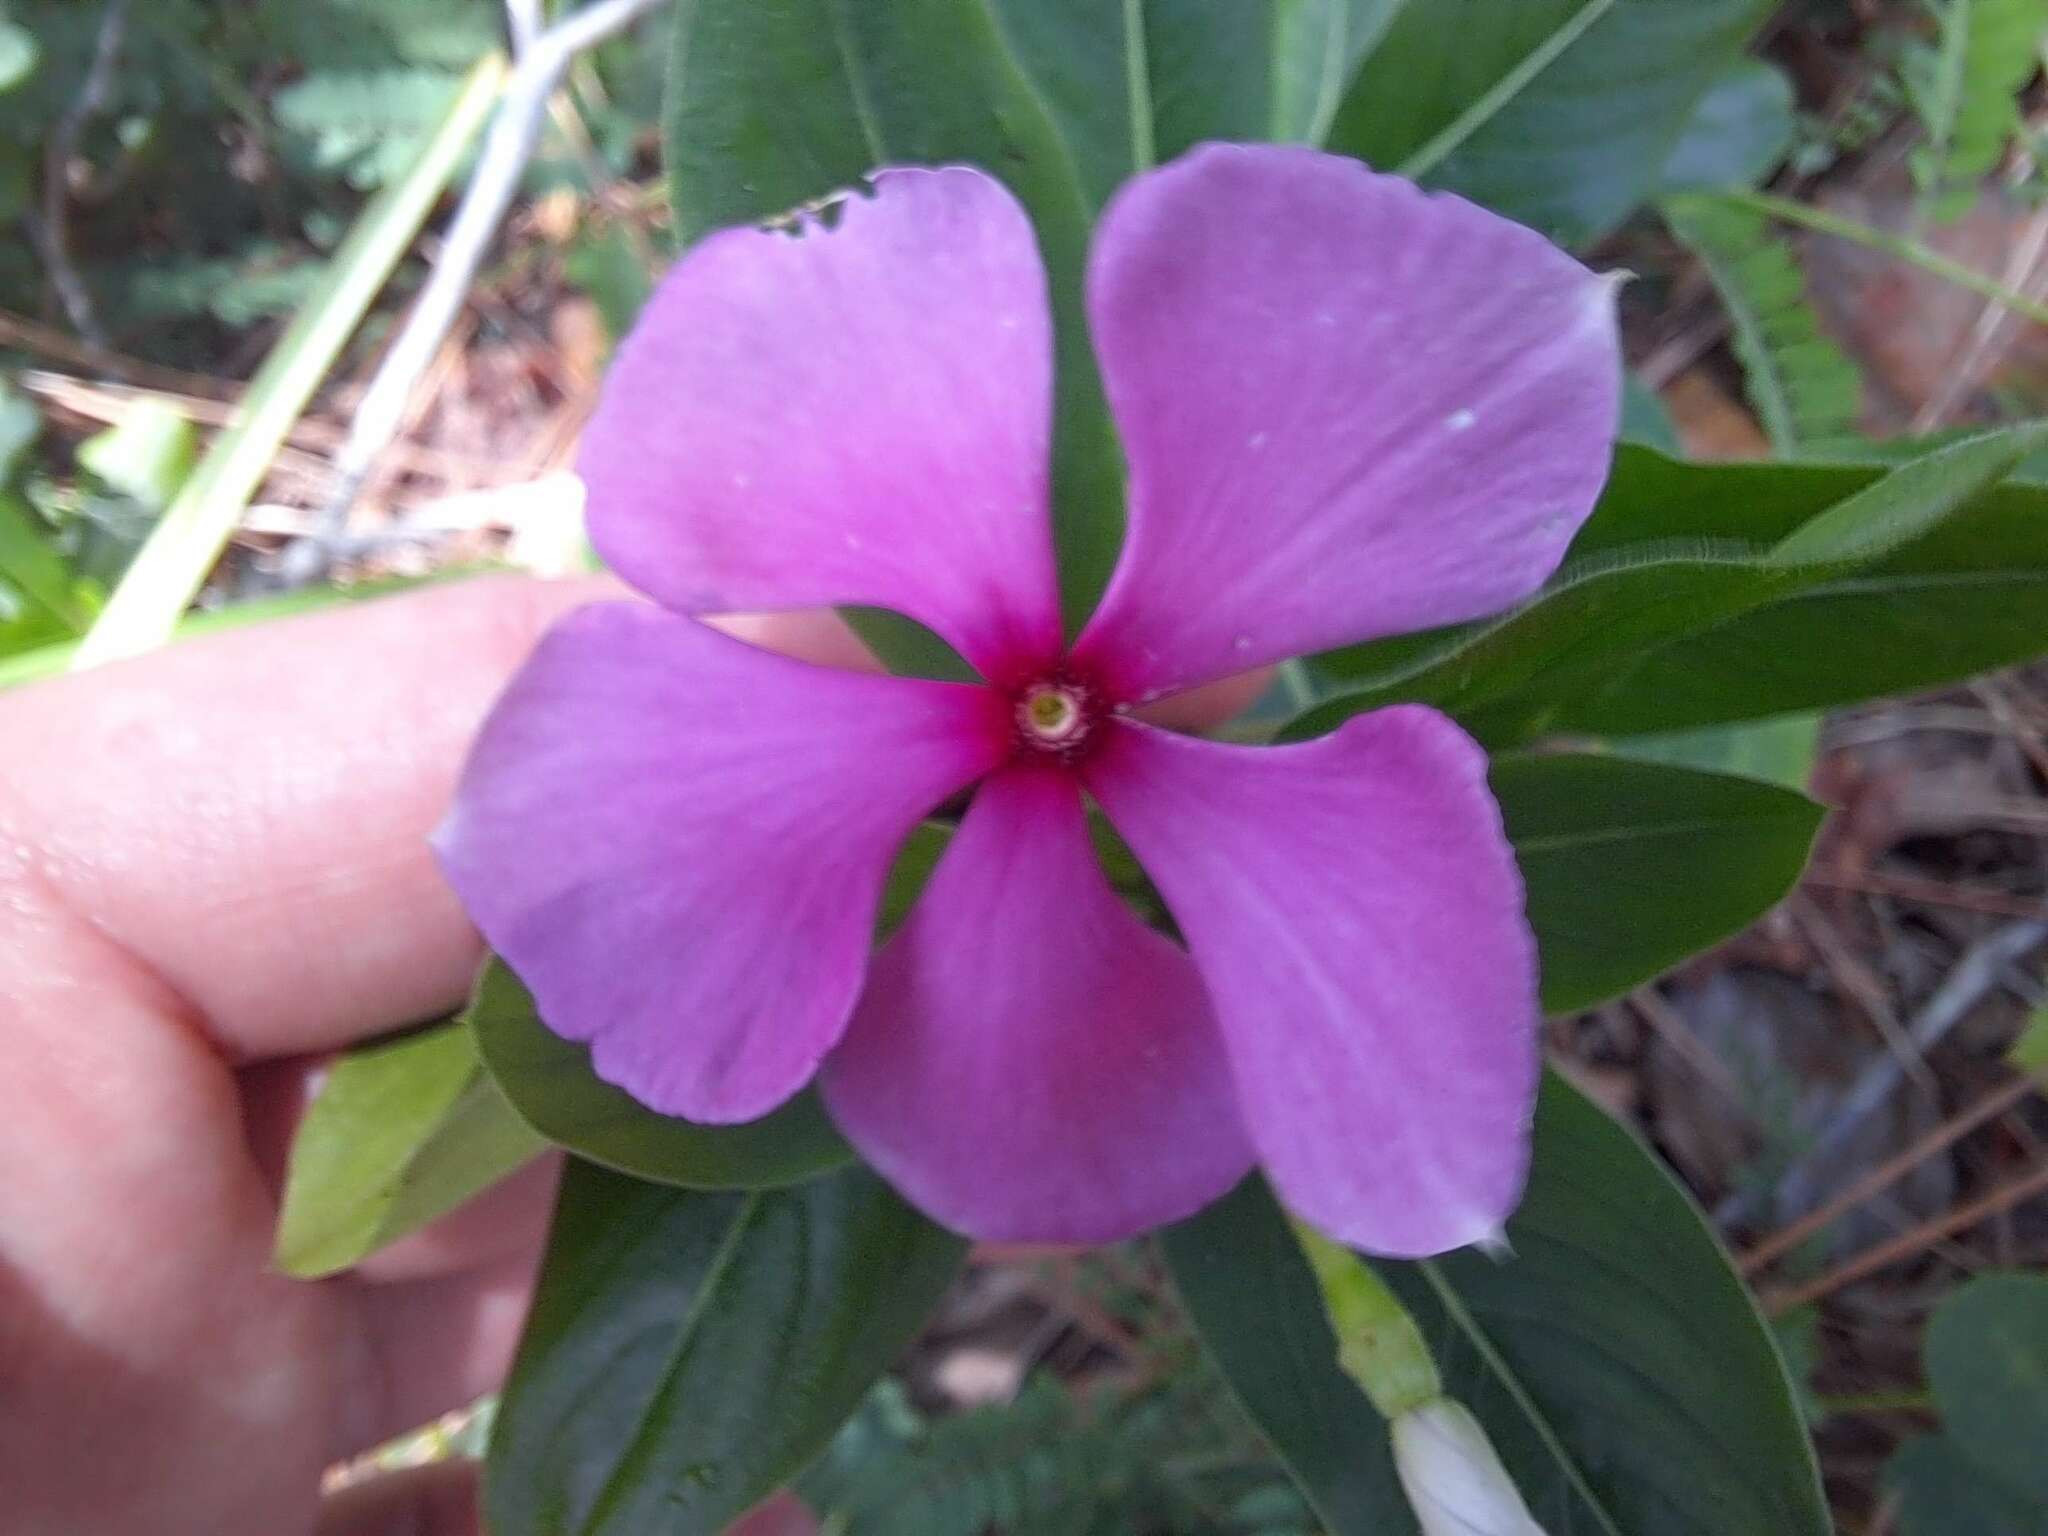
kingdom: Plantae
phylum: Tracheophyta
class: Magnoliopsida
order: Gentianales
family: Apocynaceae
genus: Catharanthus
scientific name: Catharanthus roseus
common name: Madagascar periwinkle
